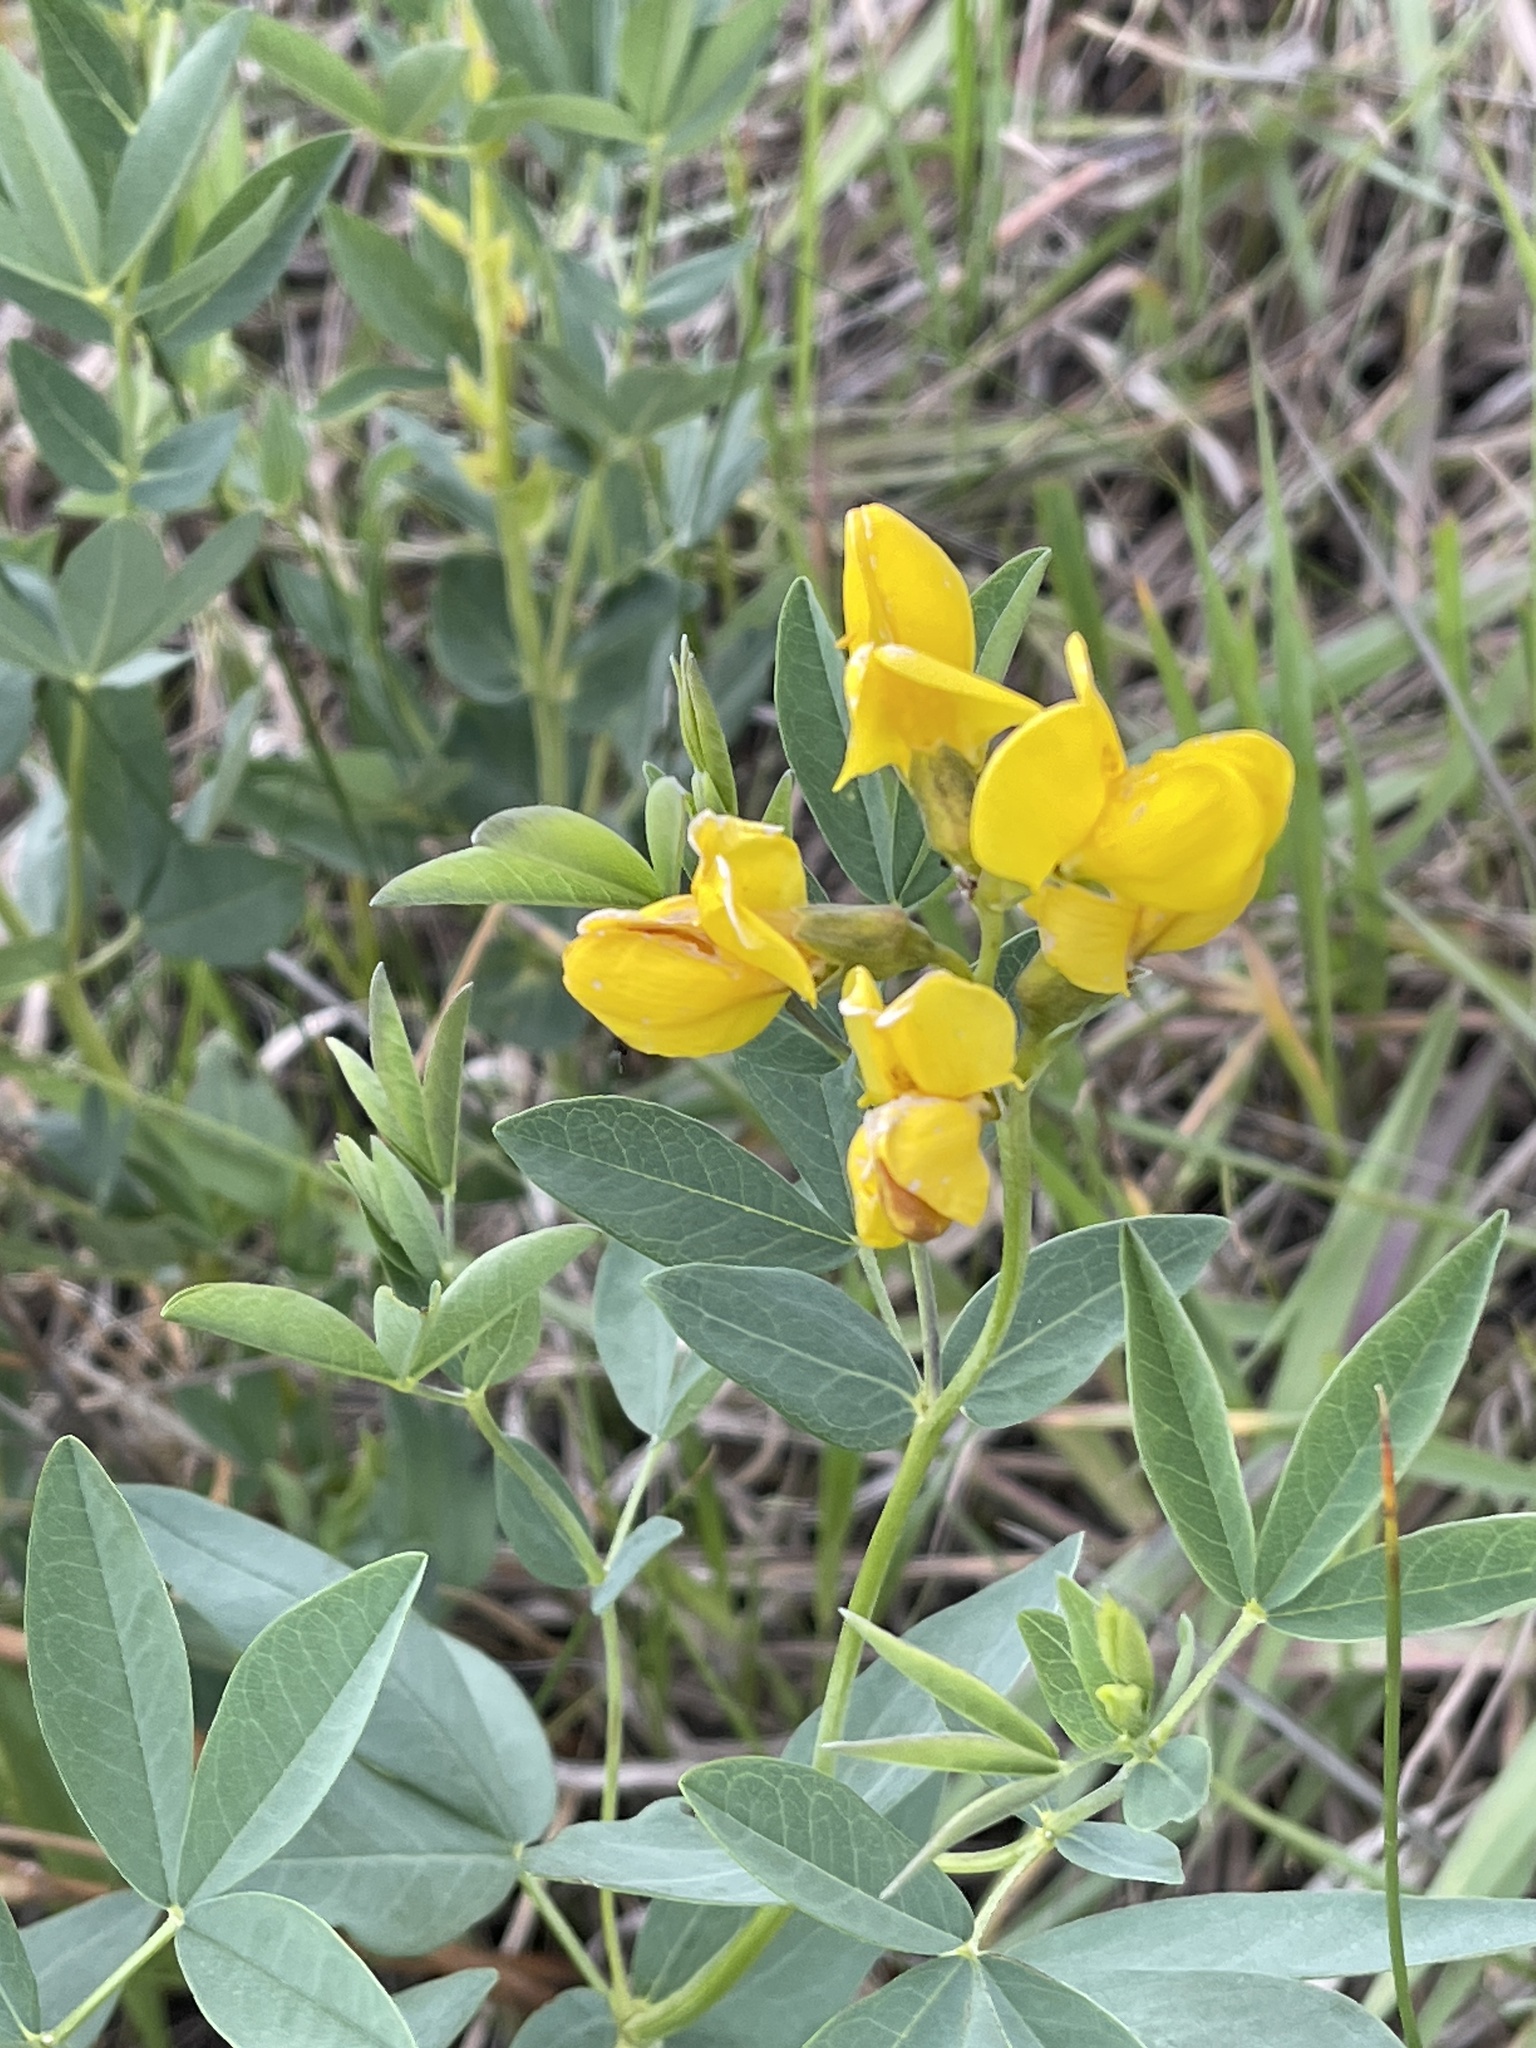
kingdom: Plantae
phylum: Tracheophyta
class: Magnoliopsida
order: Fabales
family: Fabaceae
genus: Thermopsis
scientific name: Thermopsis rhombifolia
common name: Circle-pod-pea
